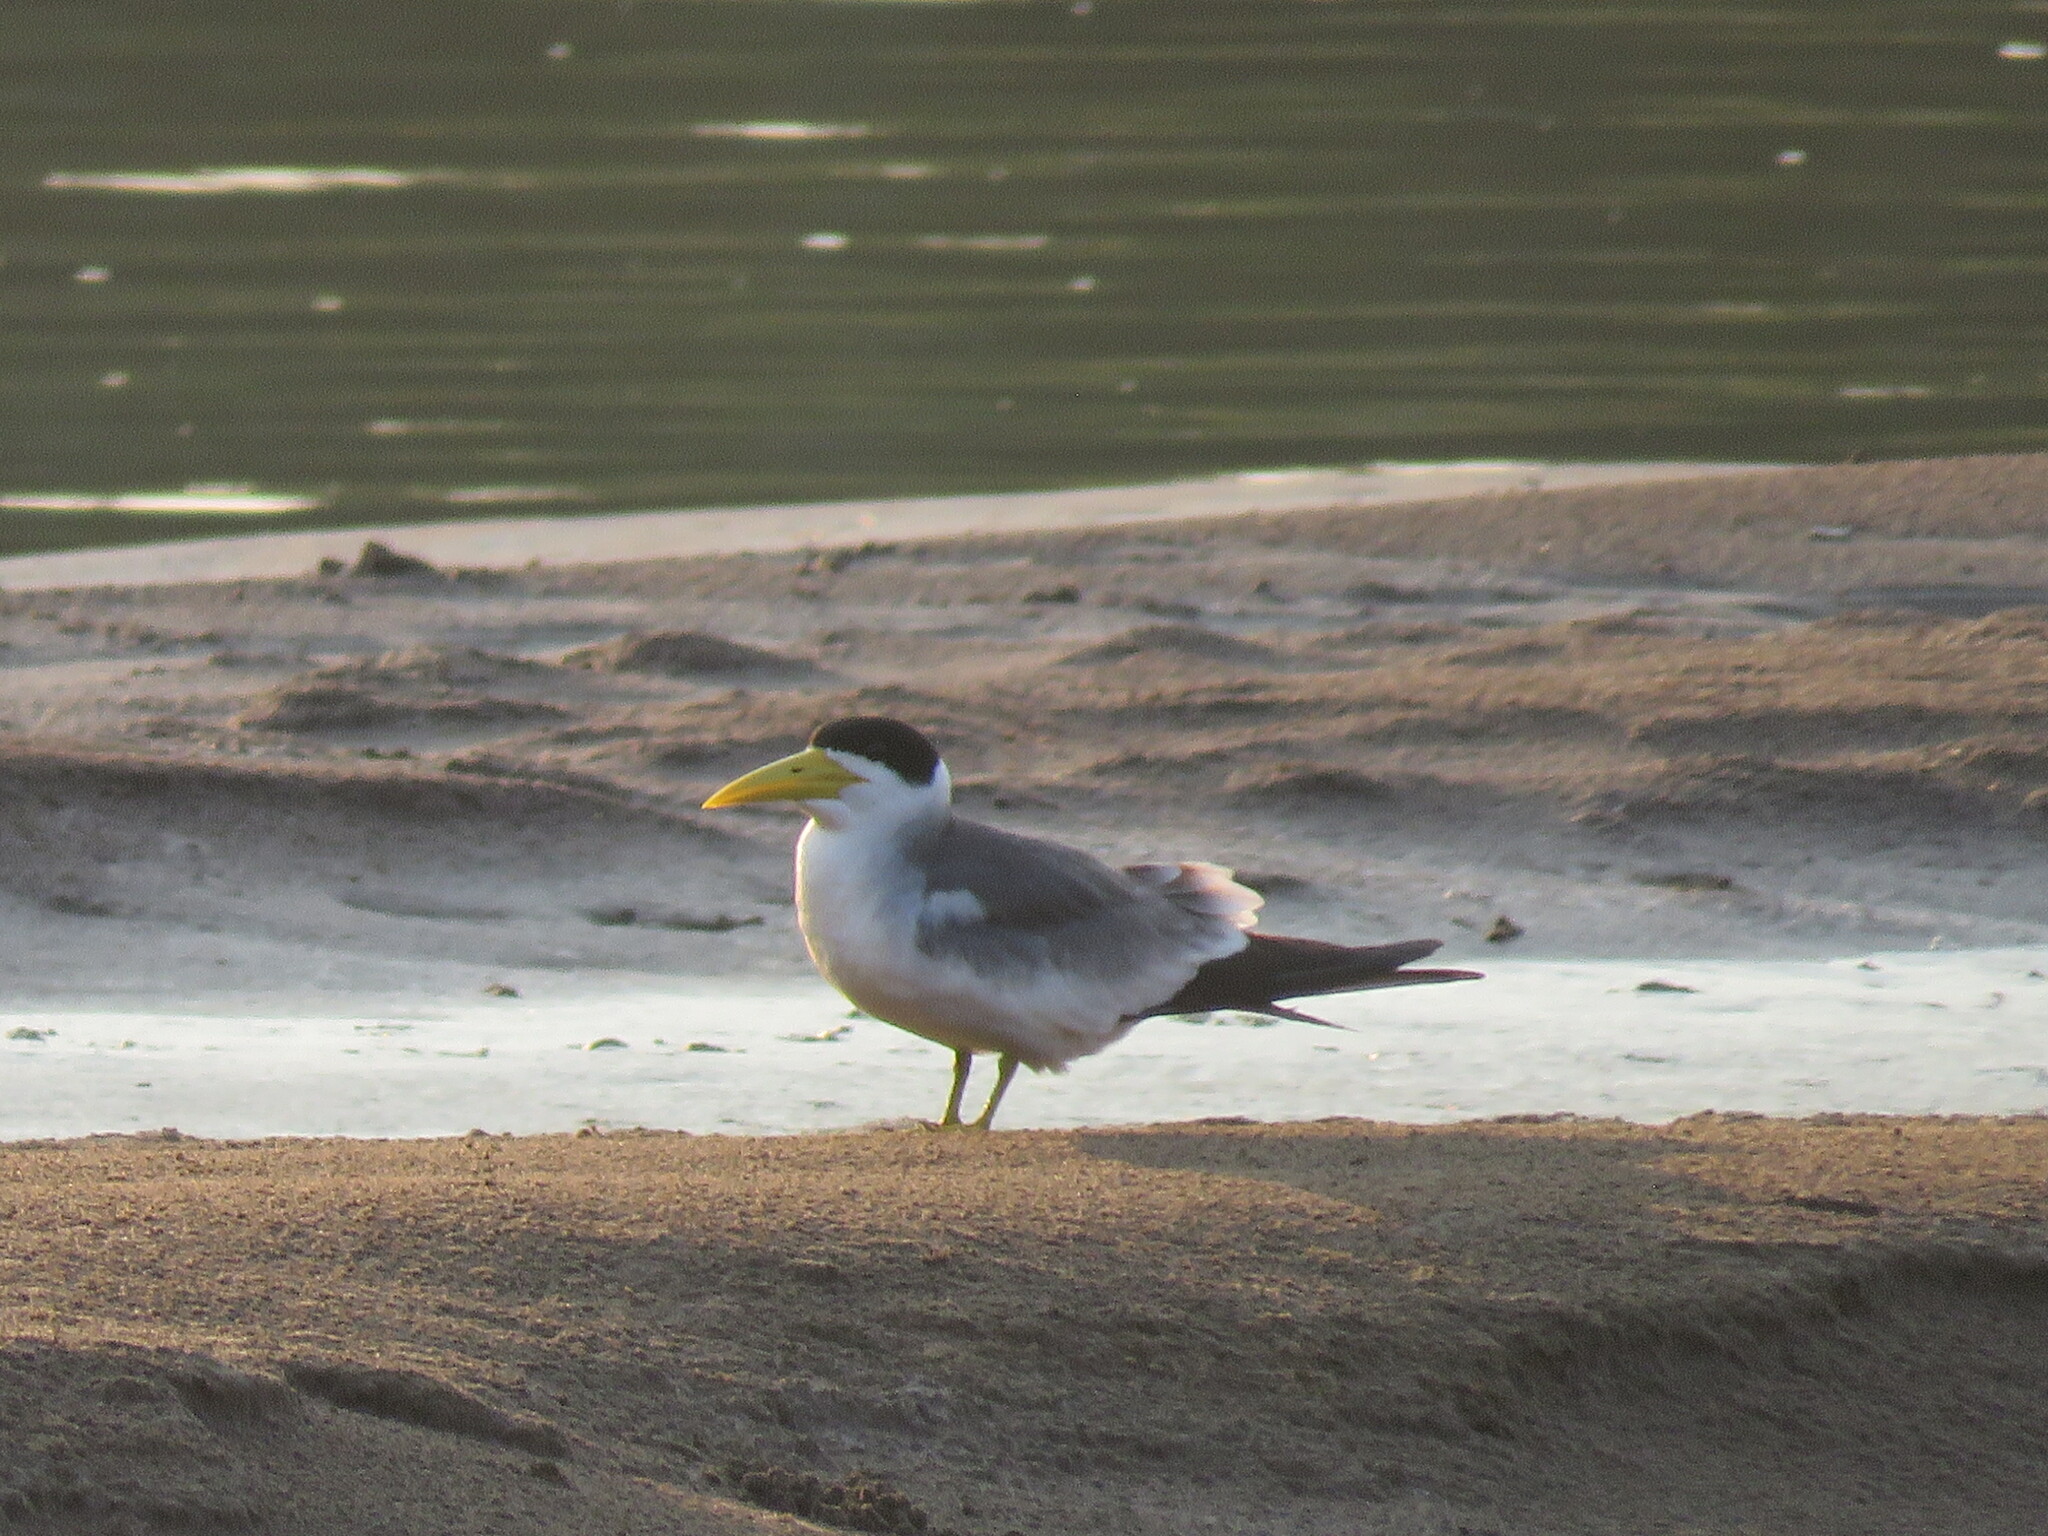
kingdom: Animalia
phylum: Chordata
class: Aves
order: Charadriiformes
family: Laridae
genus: Phaetusa
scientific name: Phaetusa simplex
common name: Large-billed tern
